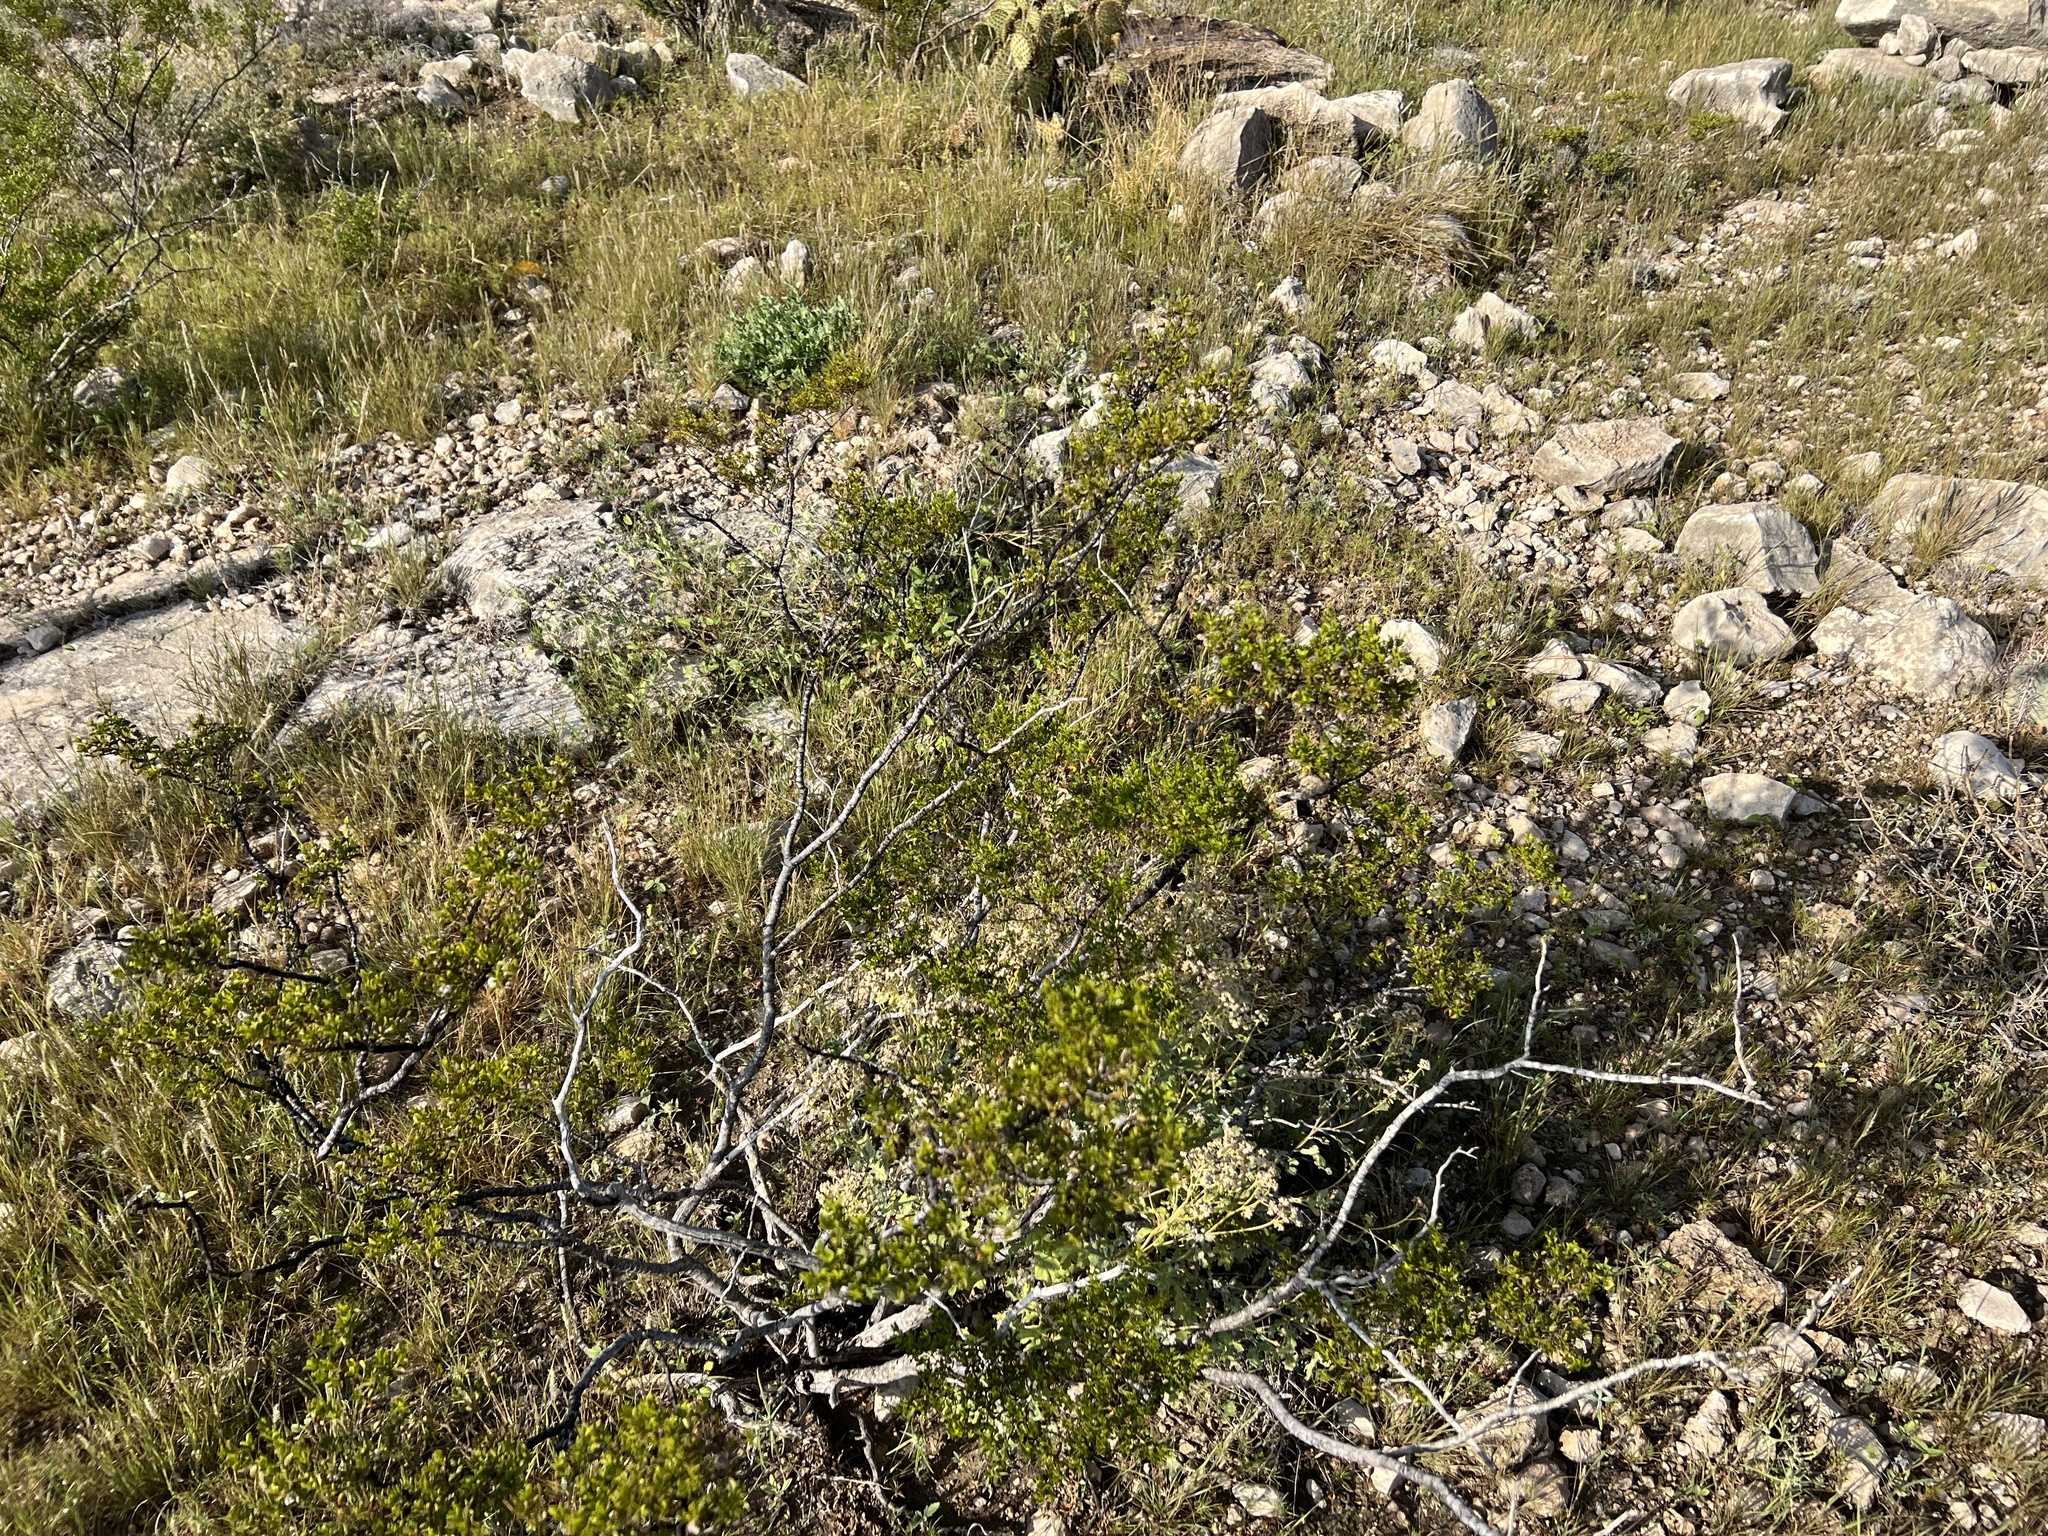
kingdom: Plantae
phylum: Tracheophyta
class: Magnoliopsida
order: Zygophyllales
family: Zygophyllaceae
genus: Larrea
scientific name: Larrea tridentata
